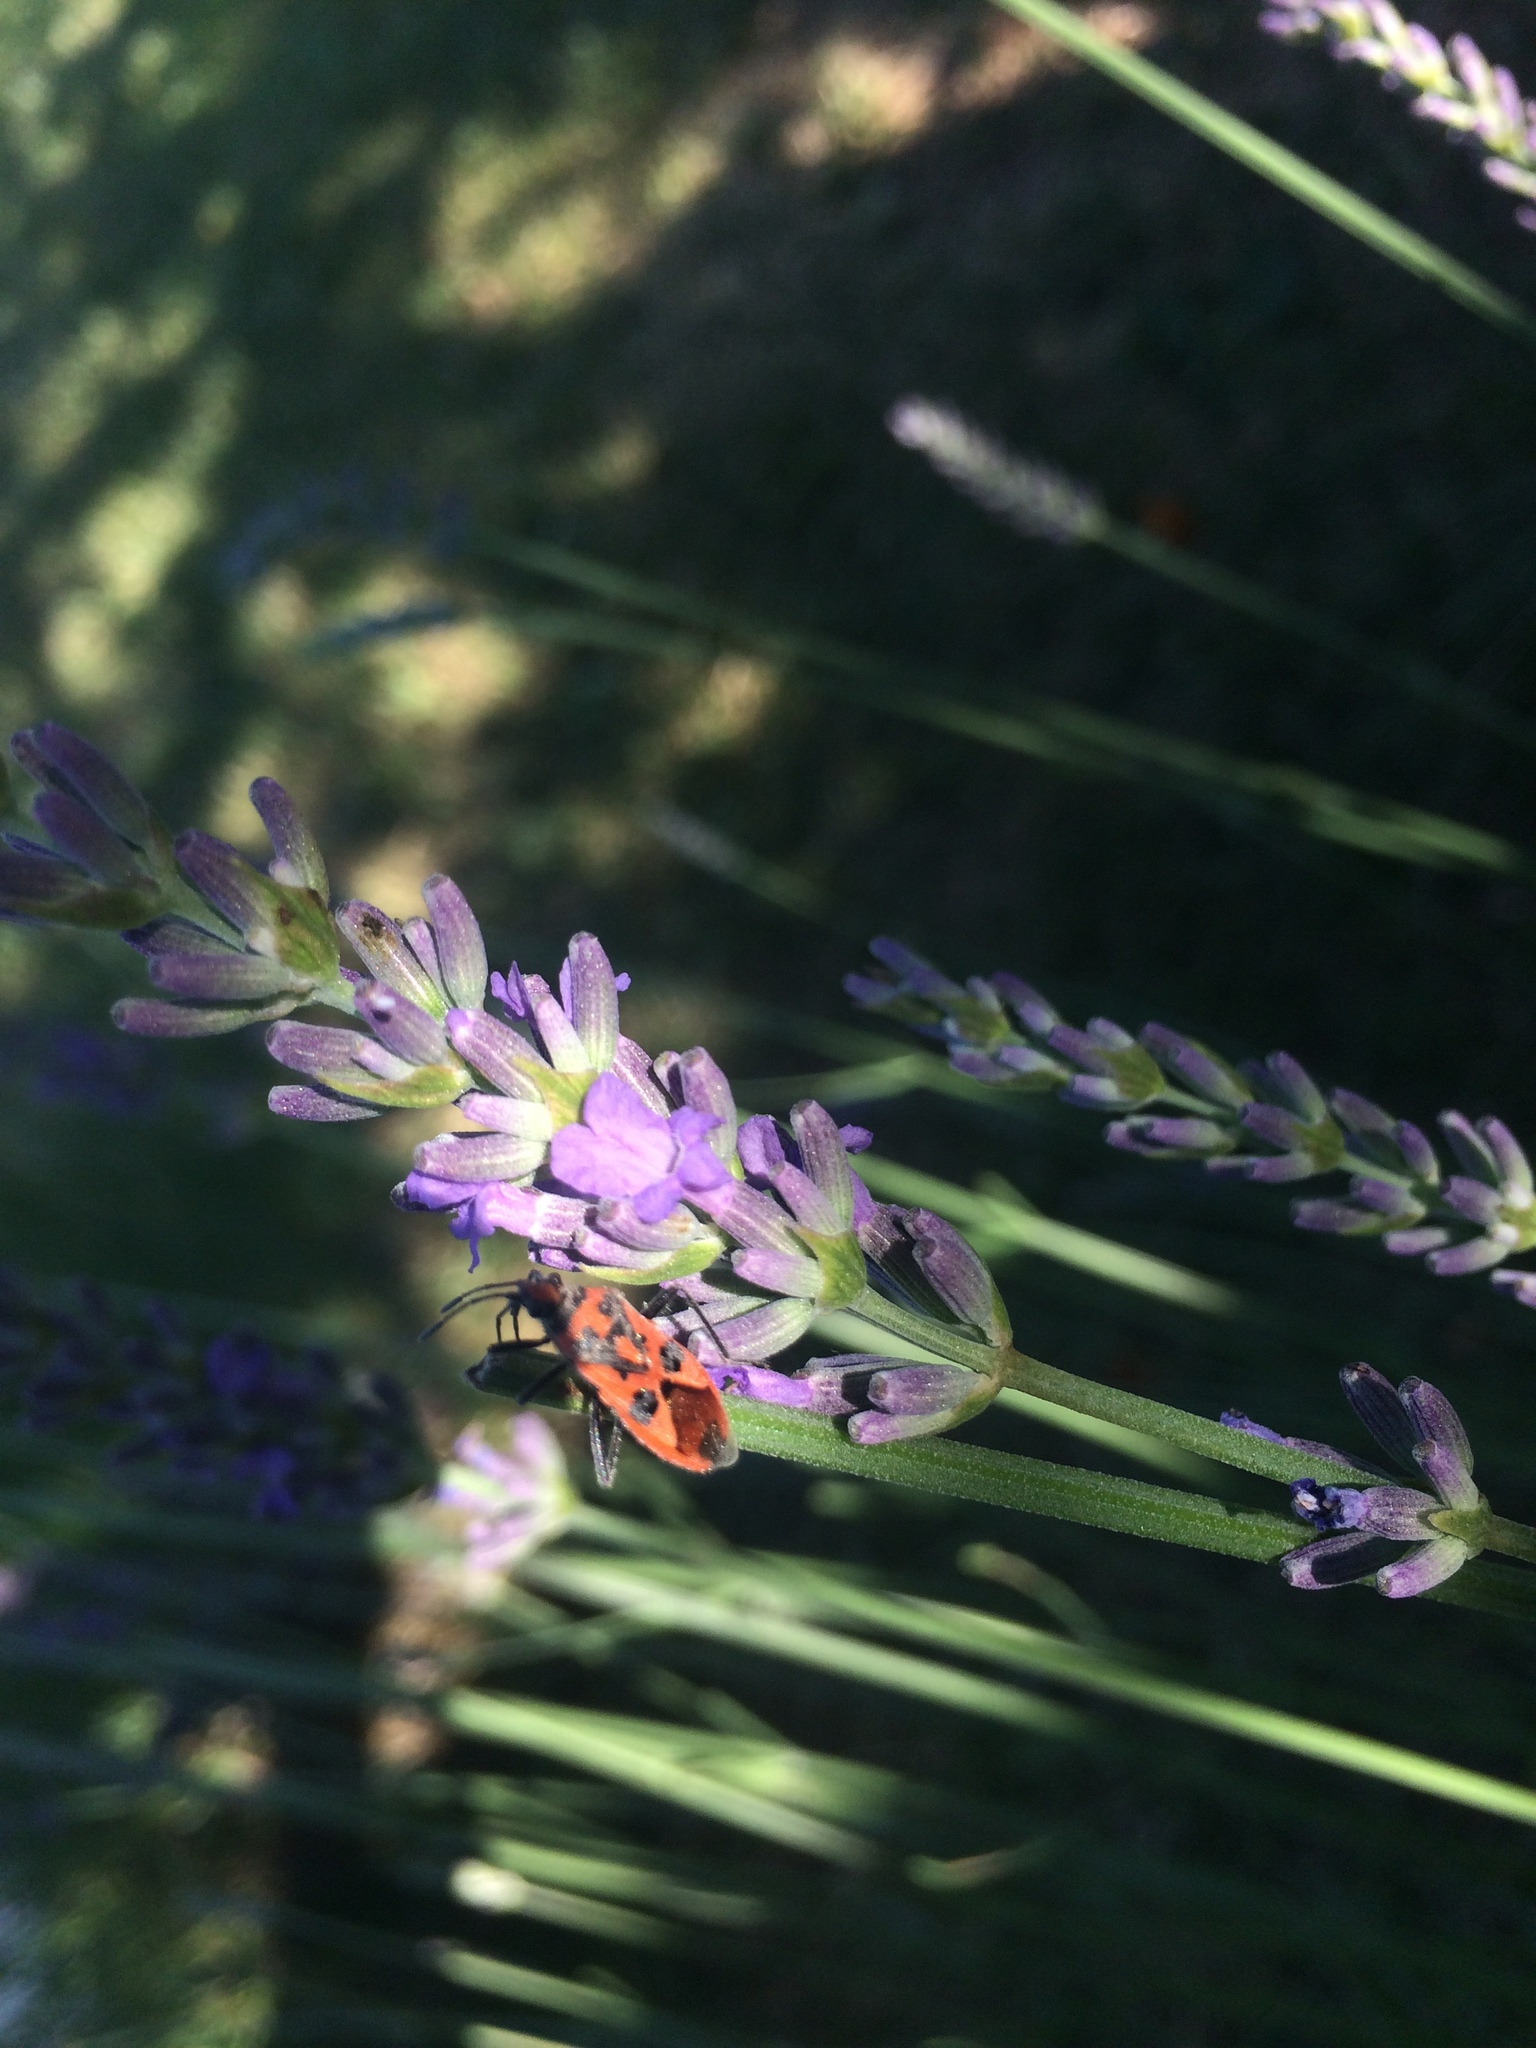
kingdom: Animalia
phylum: Arthropoda
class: Insecta
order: Hemiptera
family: Rhopalidae
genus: Corizus
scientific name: Corizus hyoscyami
